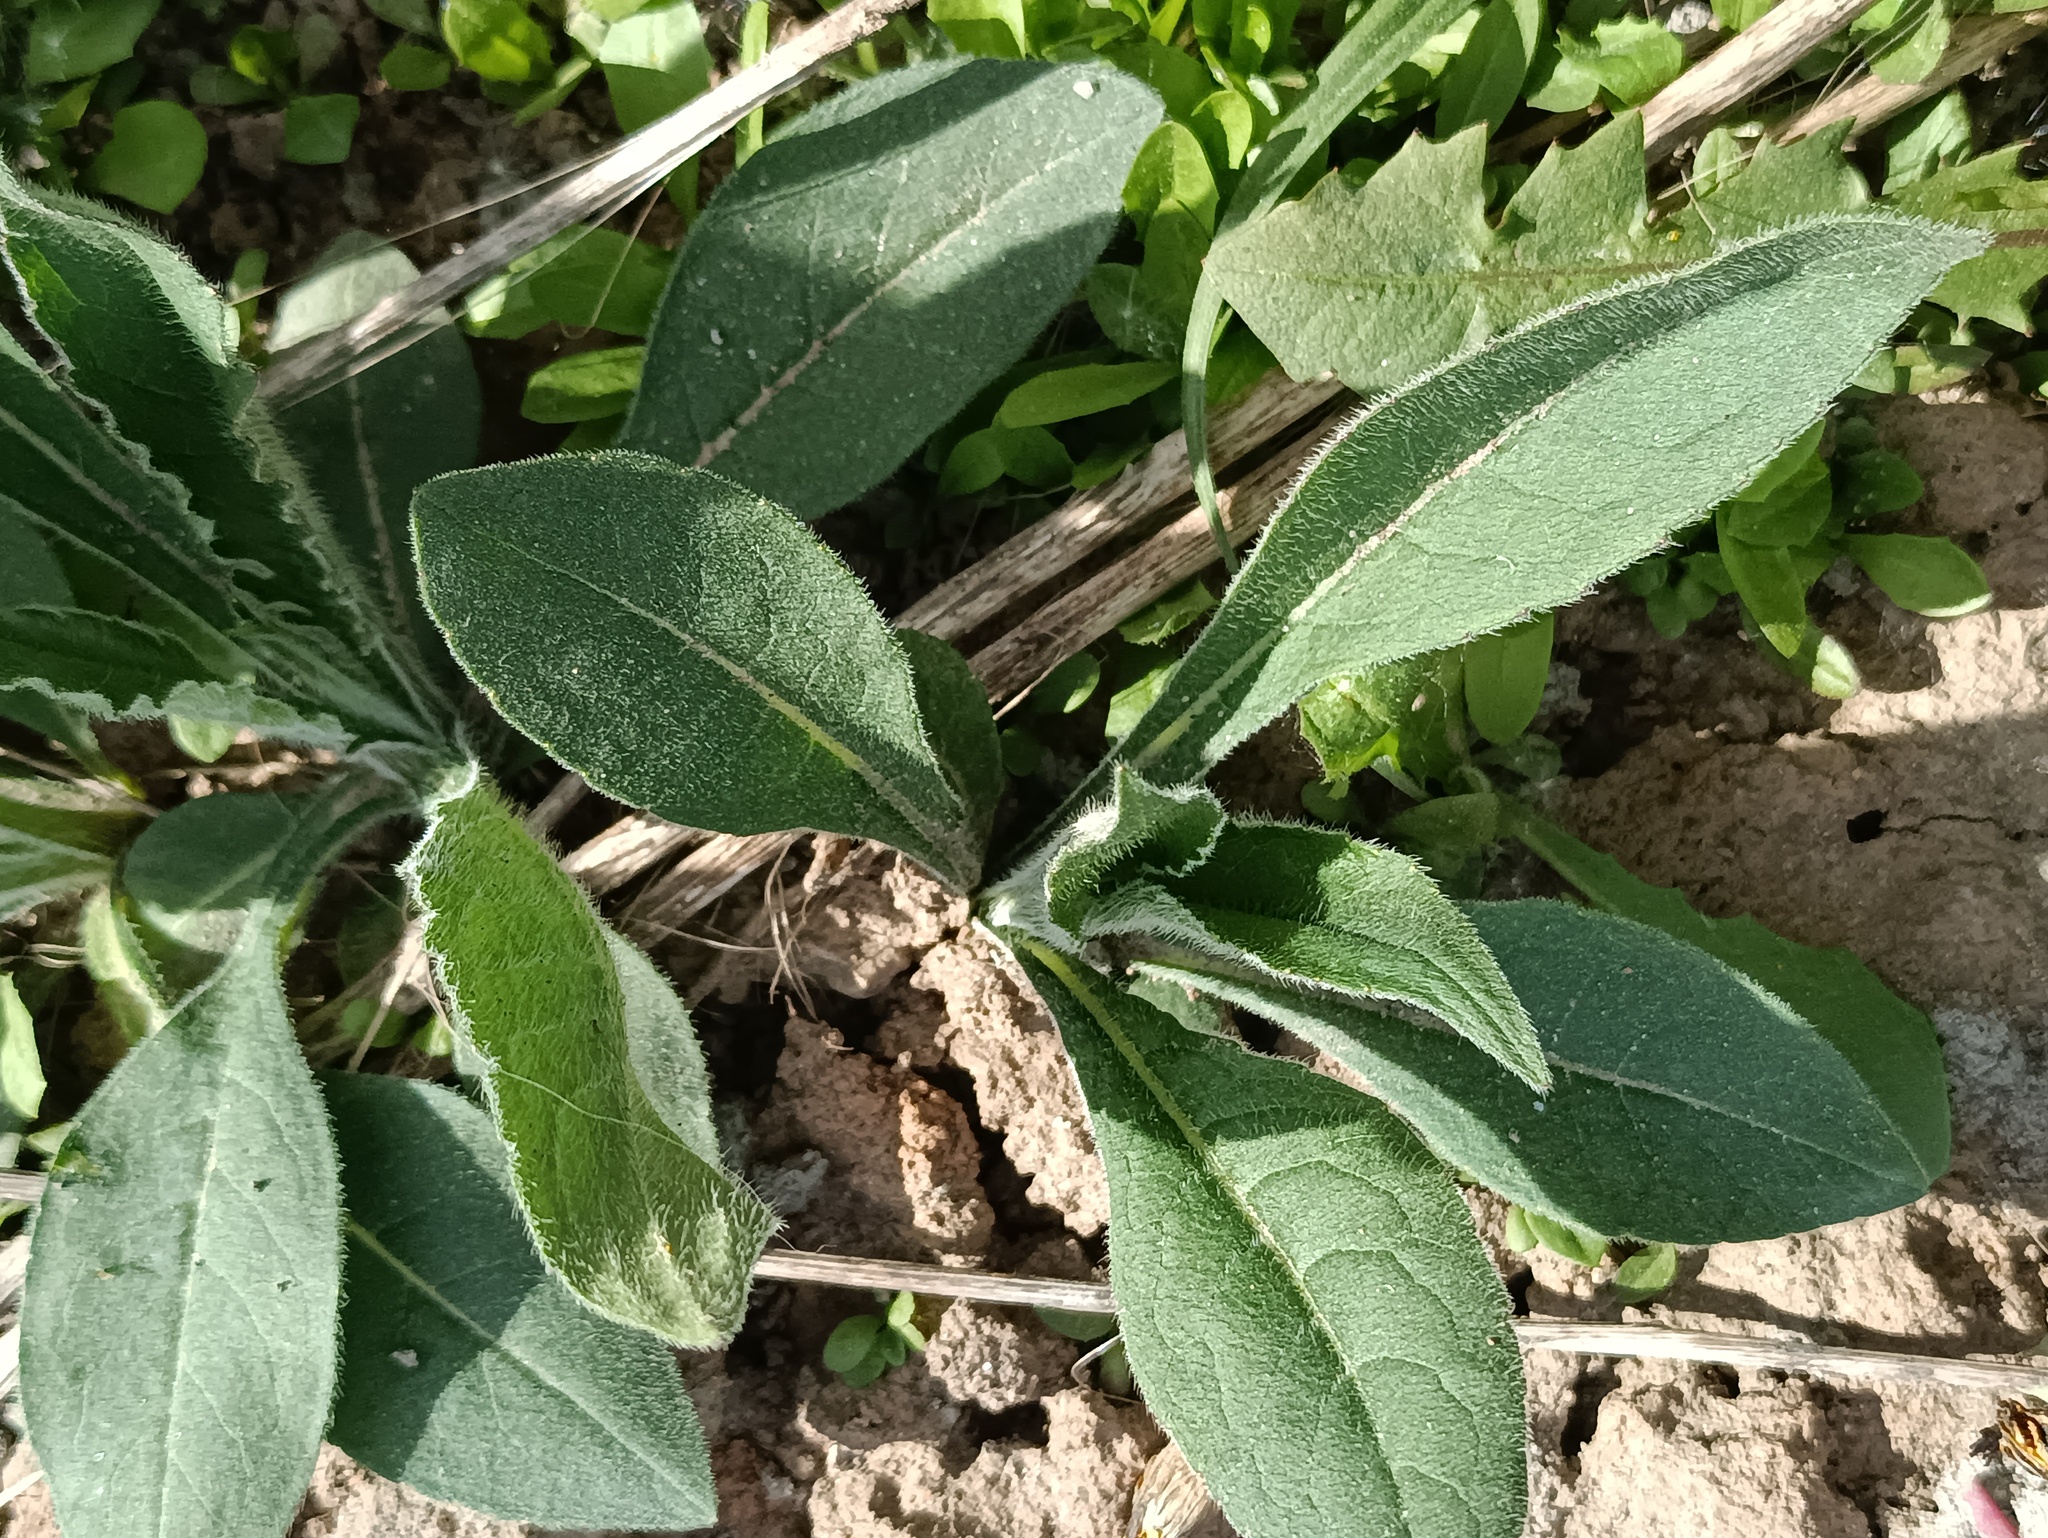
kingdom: Plantae
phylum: Tracheophyta
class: Magnoliopsida
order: Dipsacales
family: Caprifoliaceae
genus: Knautia
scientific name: Knautia arvensis
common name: Field scabiosa
